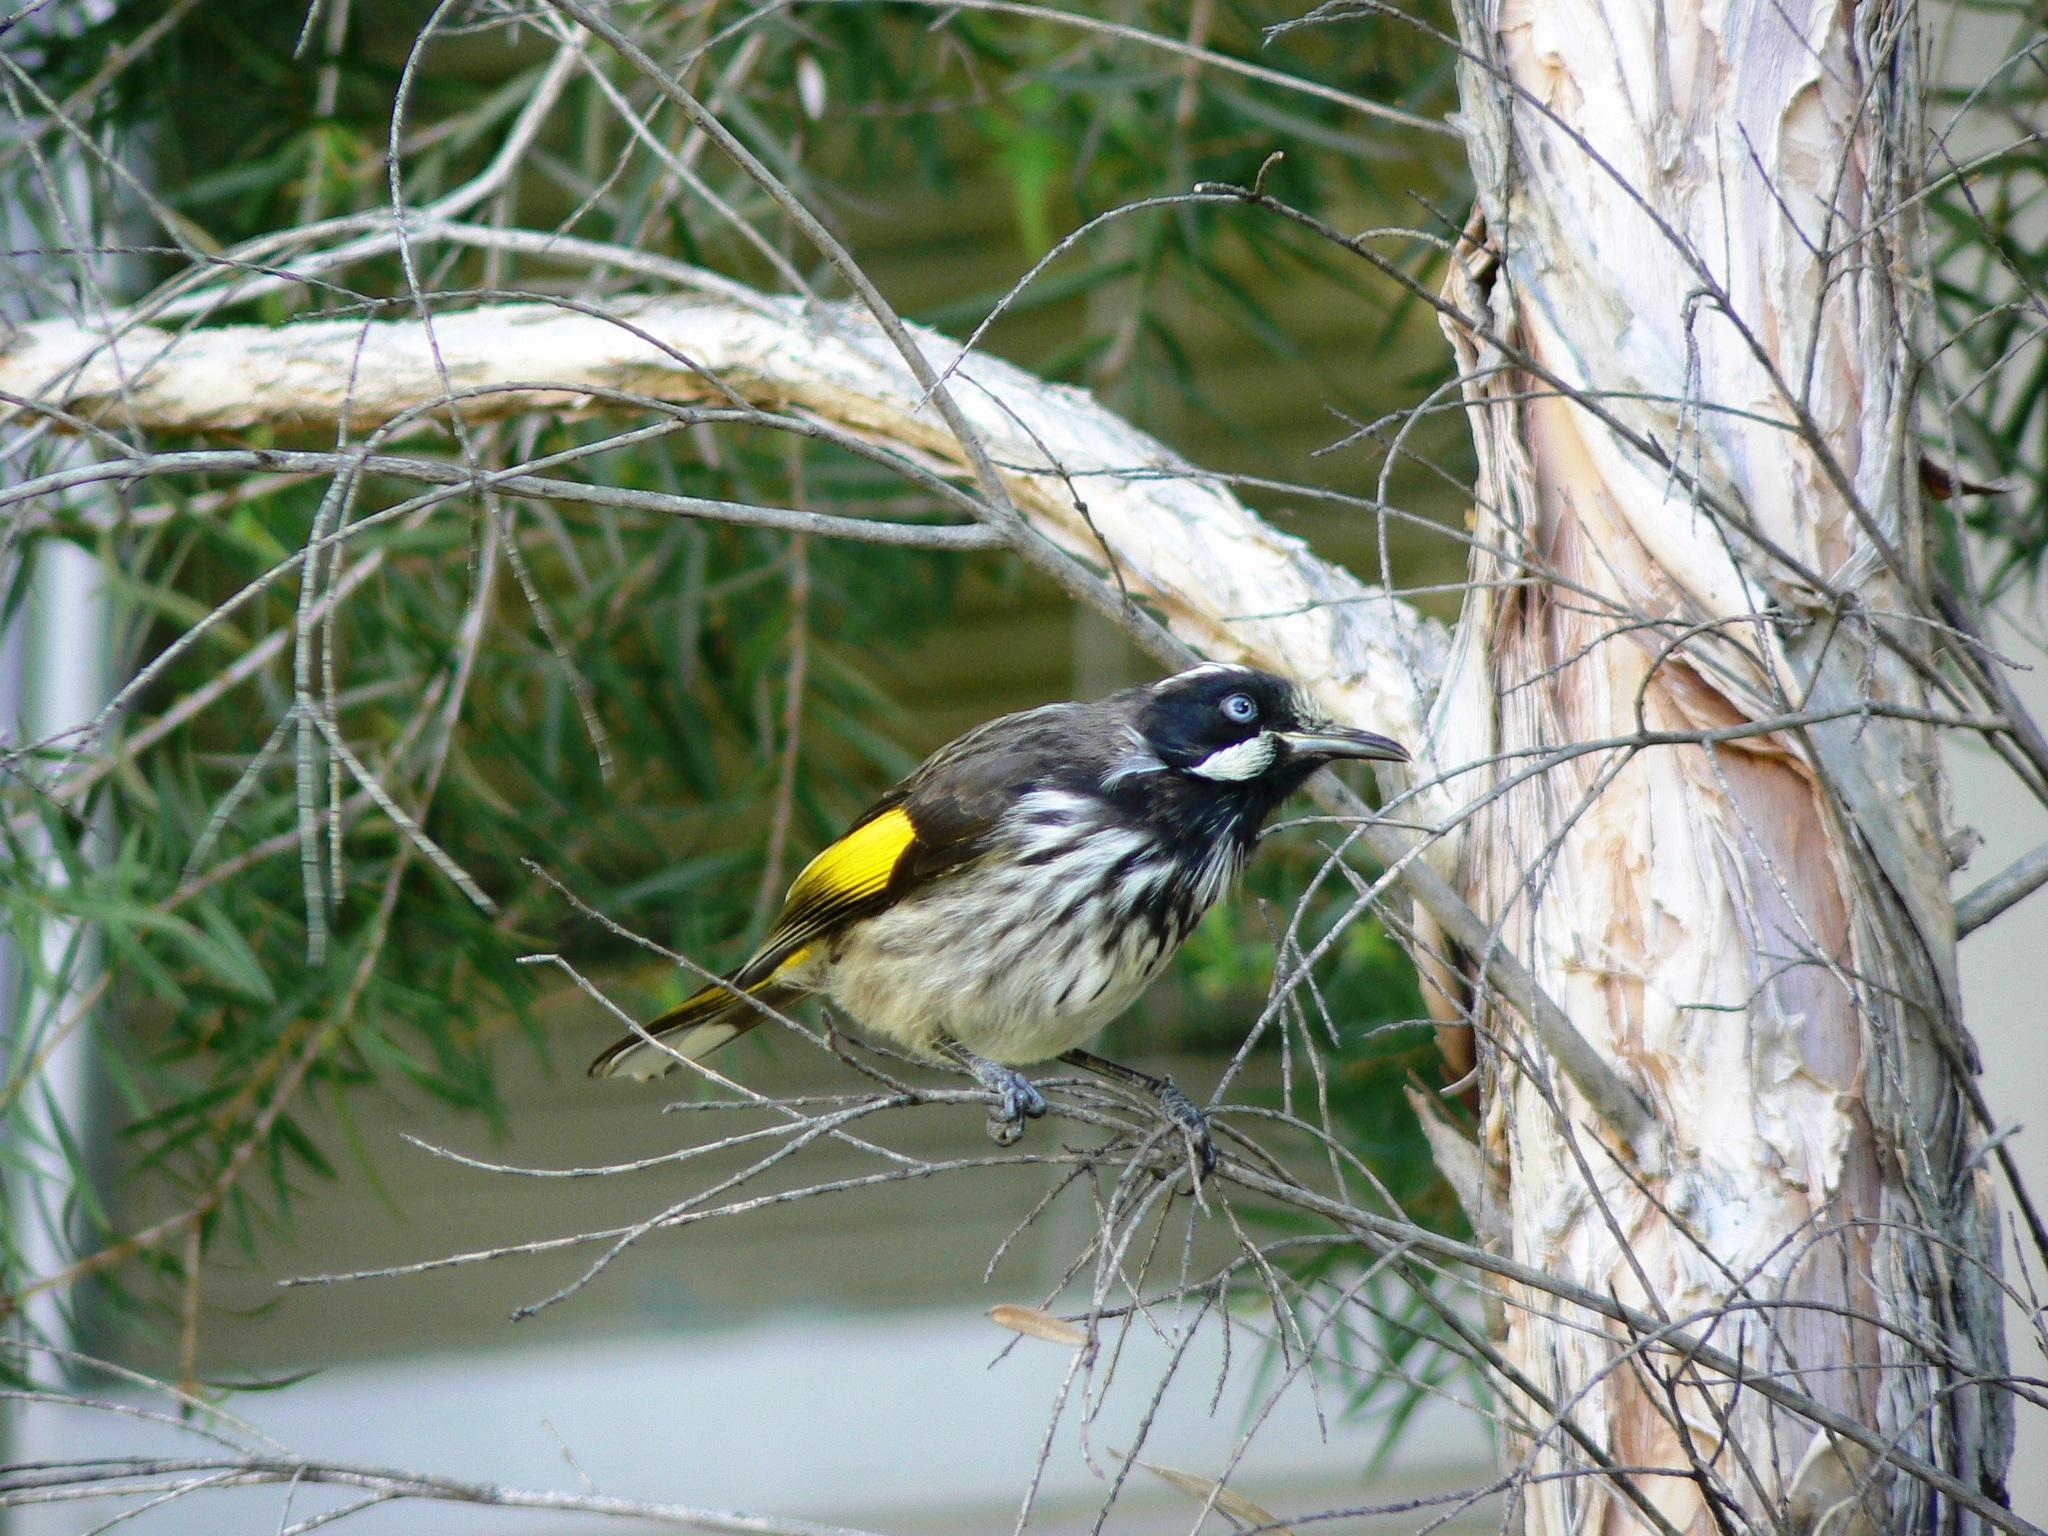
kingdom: Animalia
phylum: Chordata
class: Aves
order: Passeriformes
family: Meliphagidae
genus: Phylidonyris
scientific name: Phylidonyris novaehollandiae
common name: New holland honeyeater
